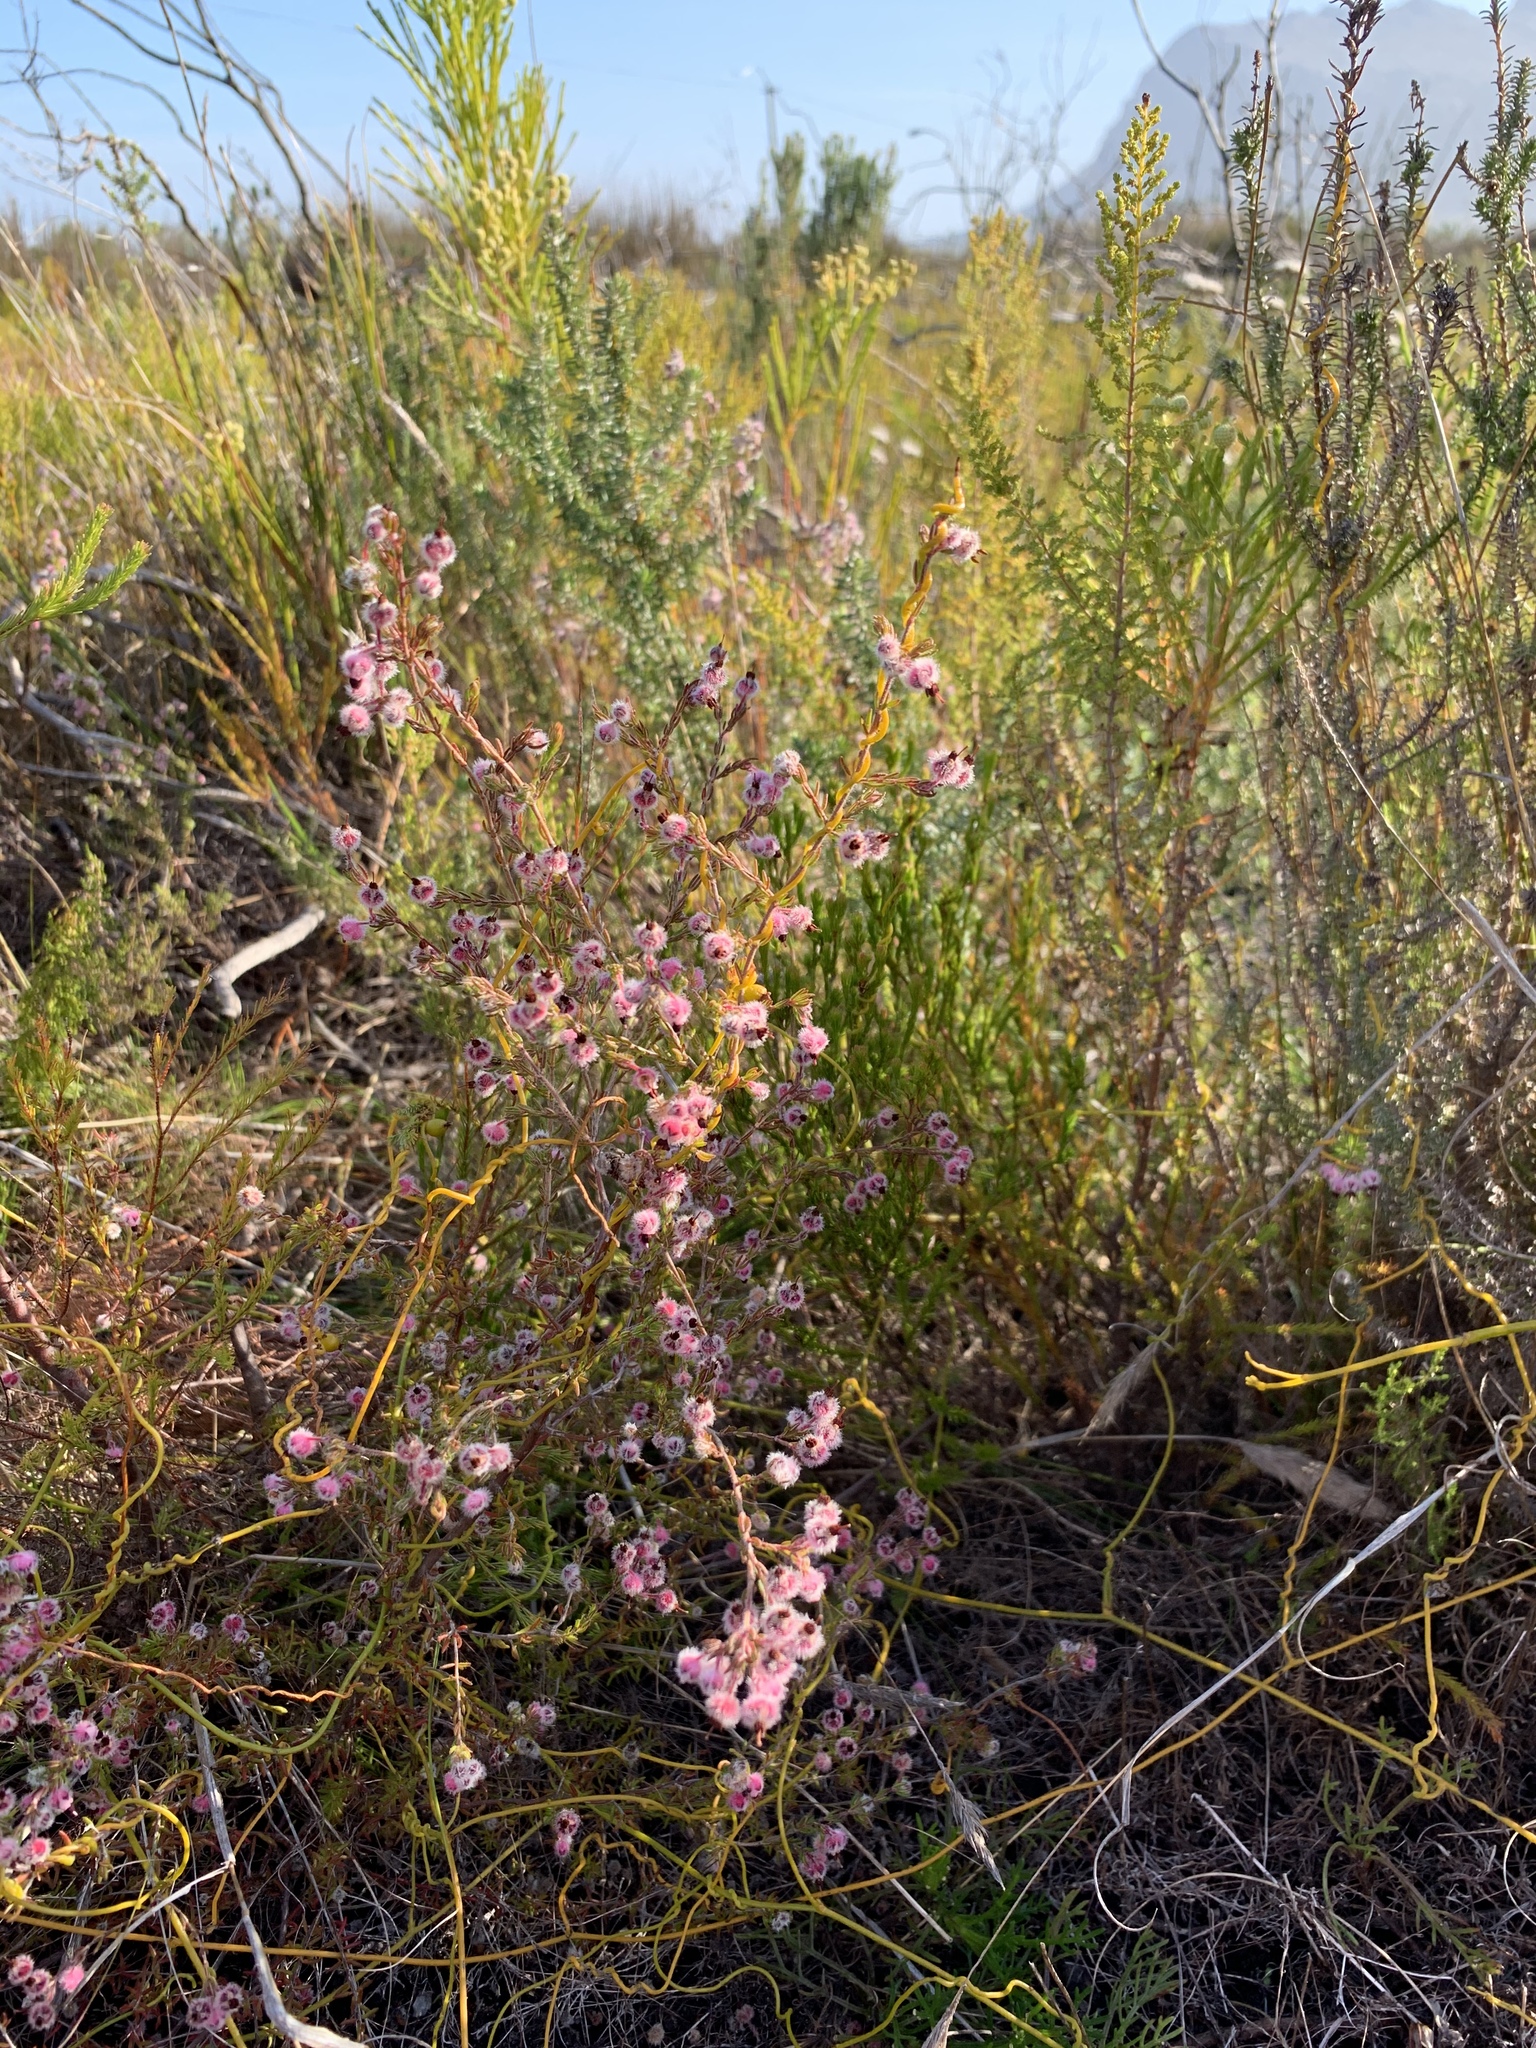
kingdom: Plantae
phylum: Tracheophyta
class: Magnoliopsida
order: Ericales
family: Ericaceae
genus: Erica
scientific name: Erica bruniades
